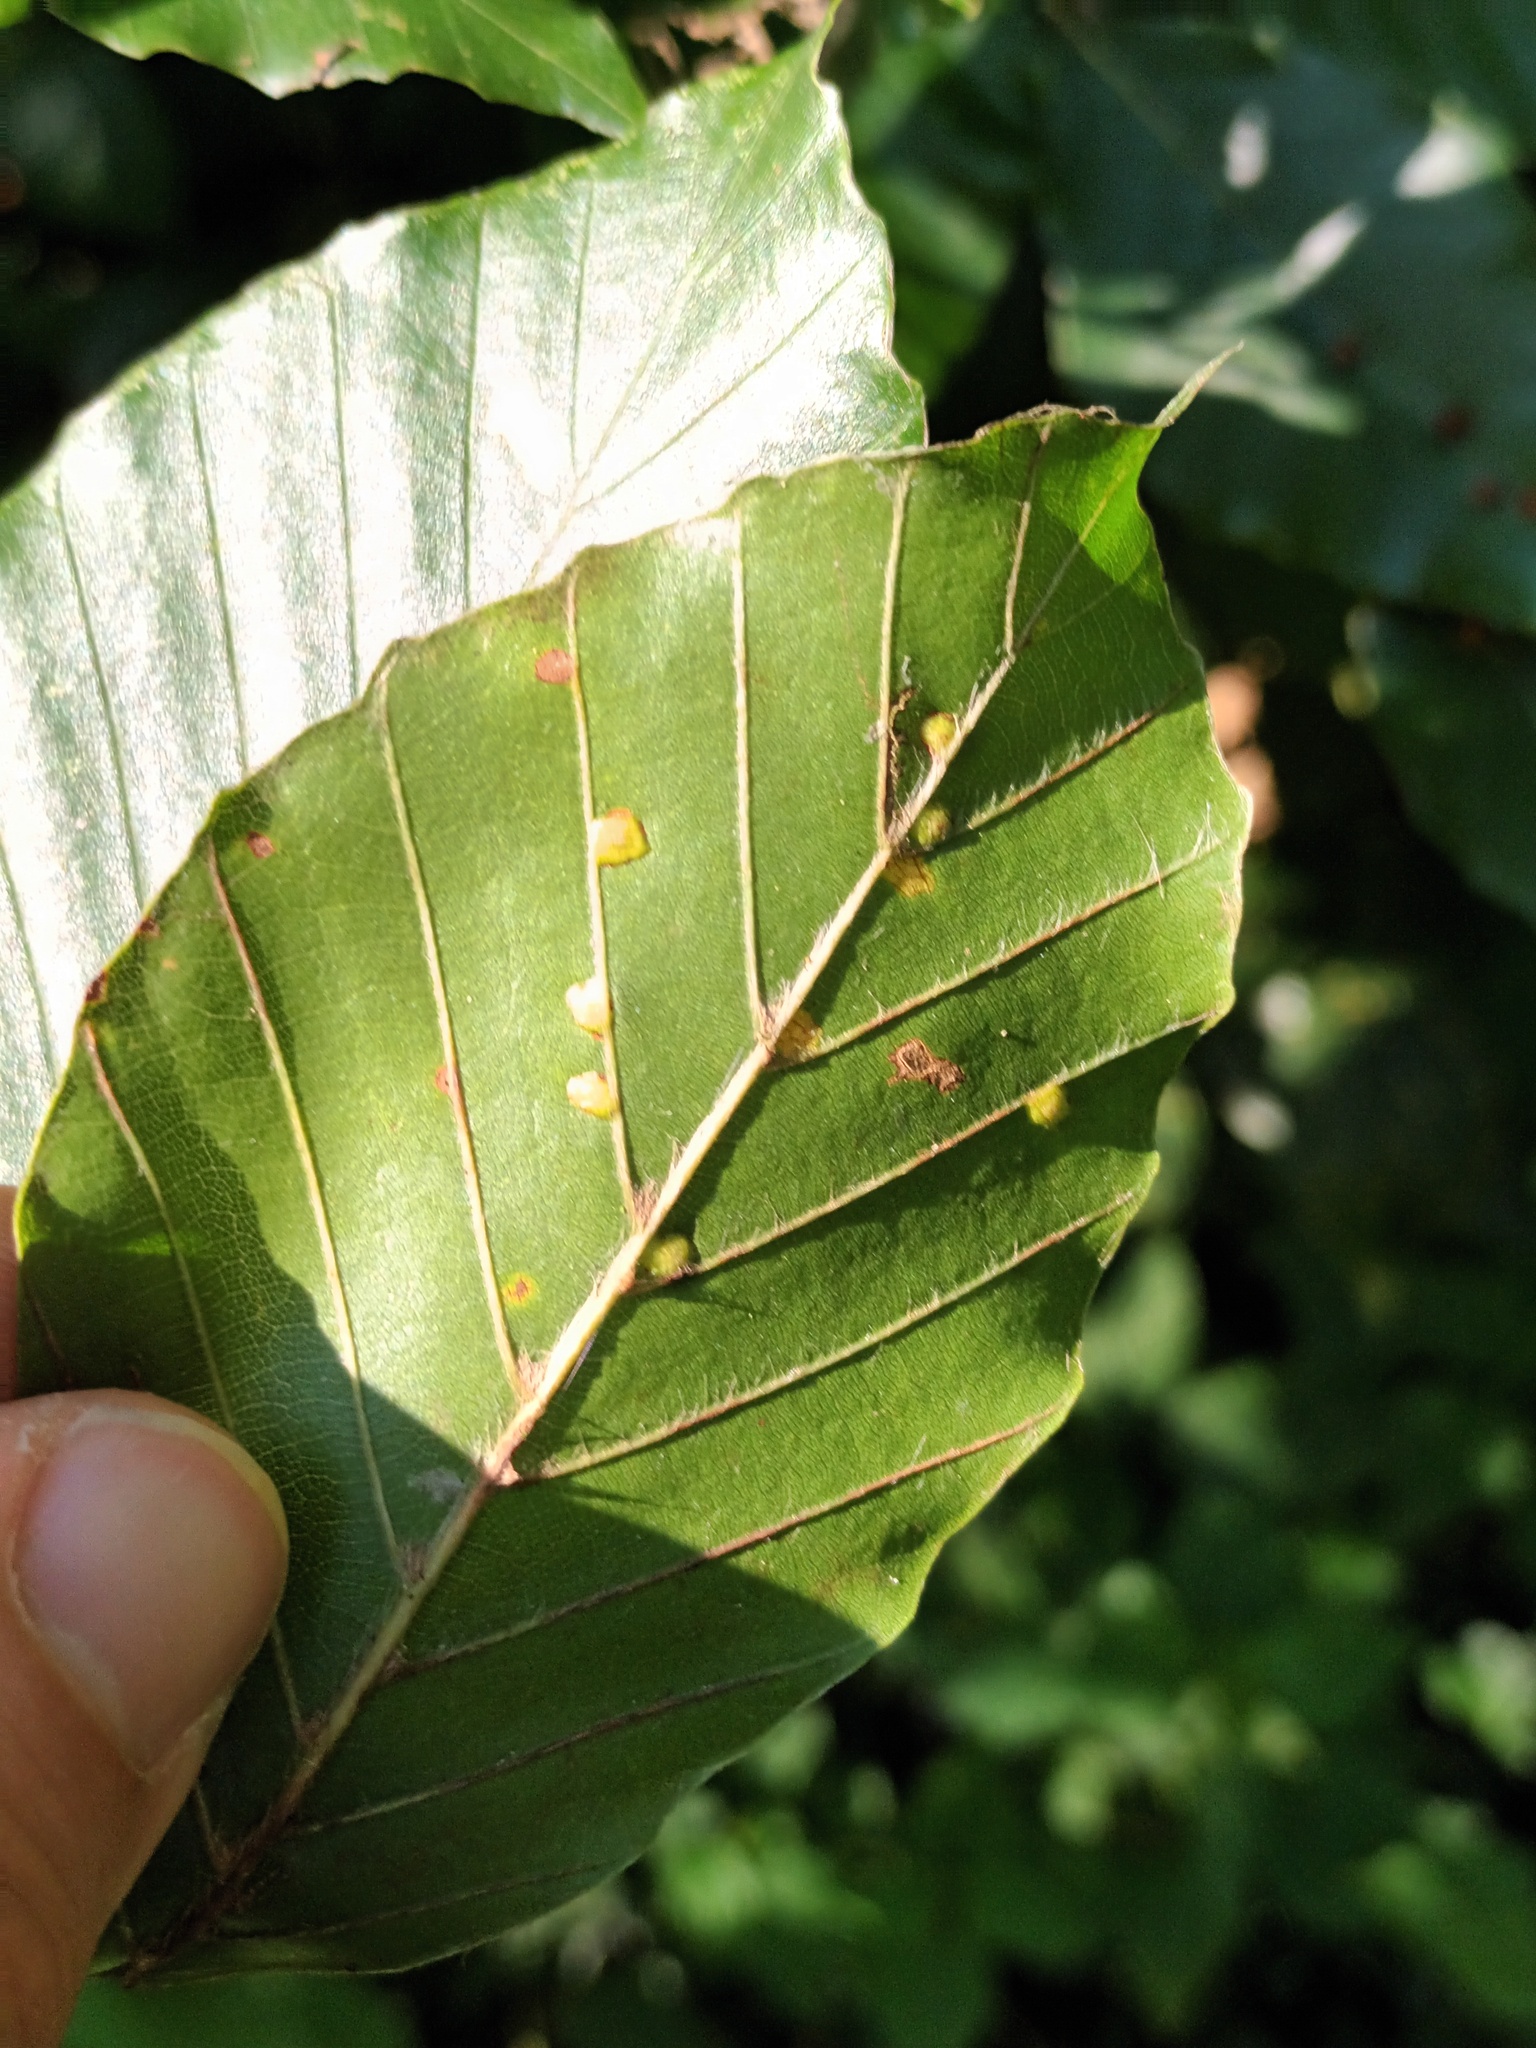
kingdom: Animalia
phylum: Arthropoda
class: Insecta
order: Diptera
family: Cecidomyiidae
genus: Hartigiola
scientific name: Hartigiola annulipes
